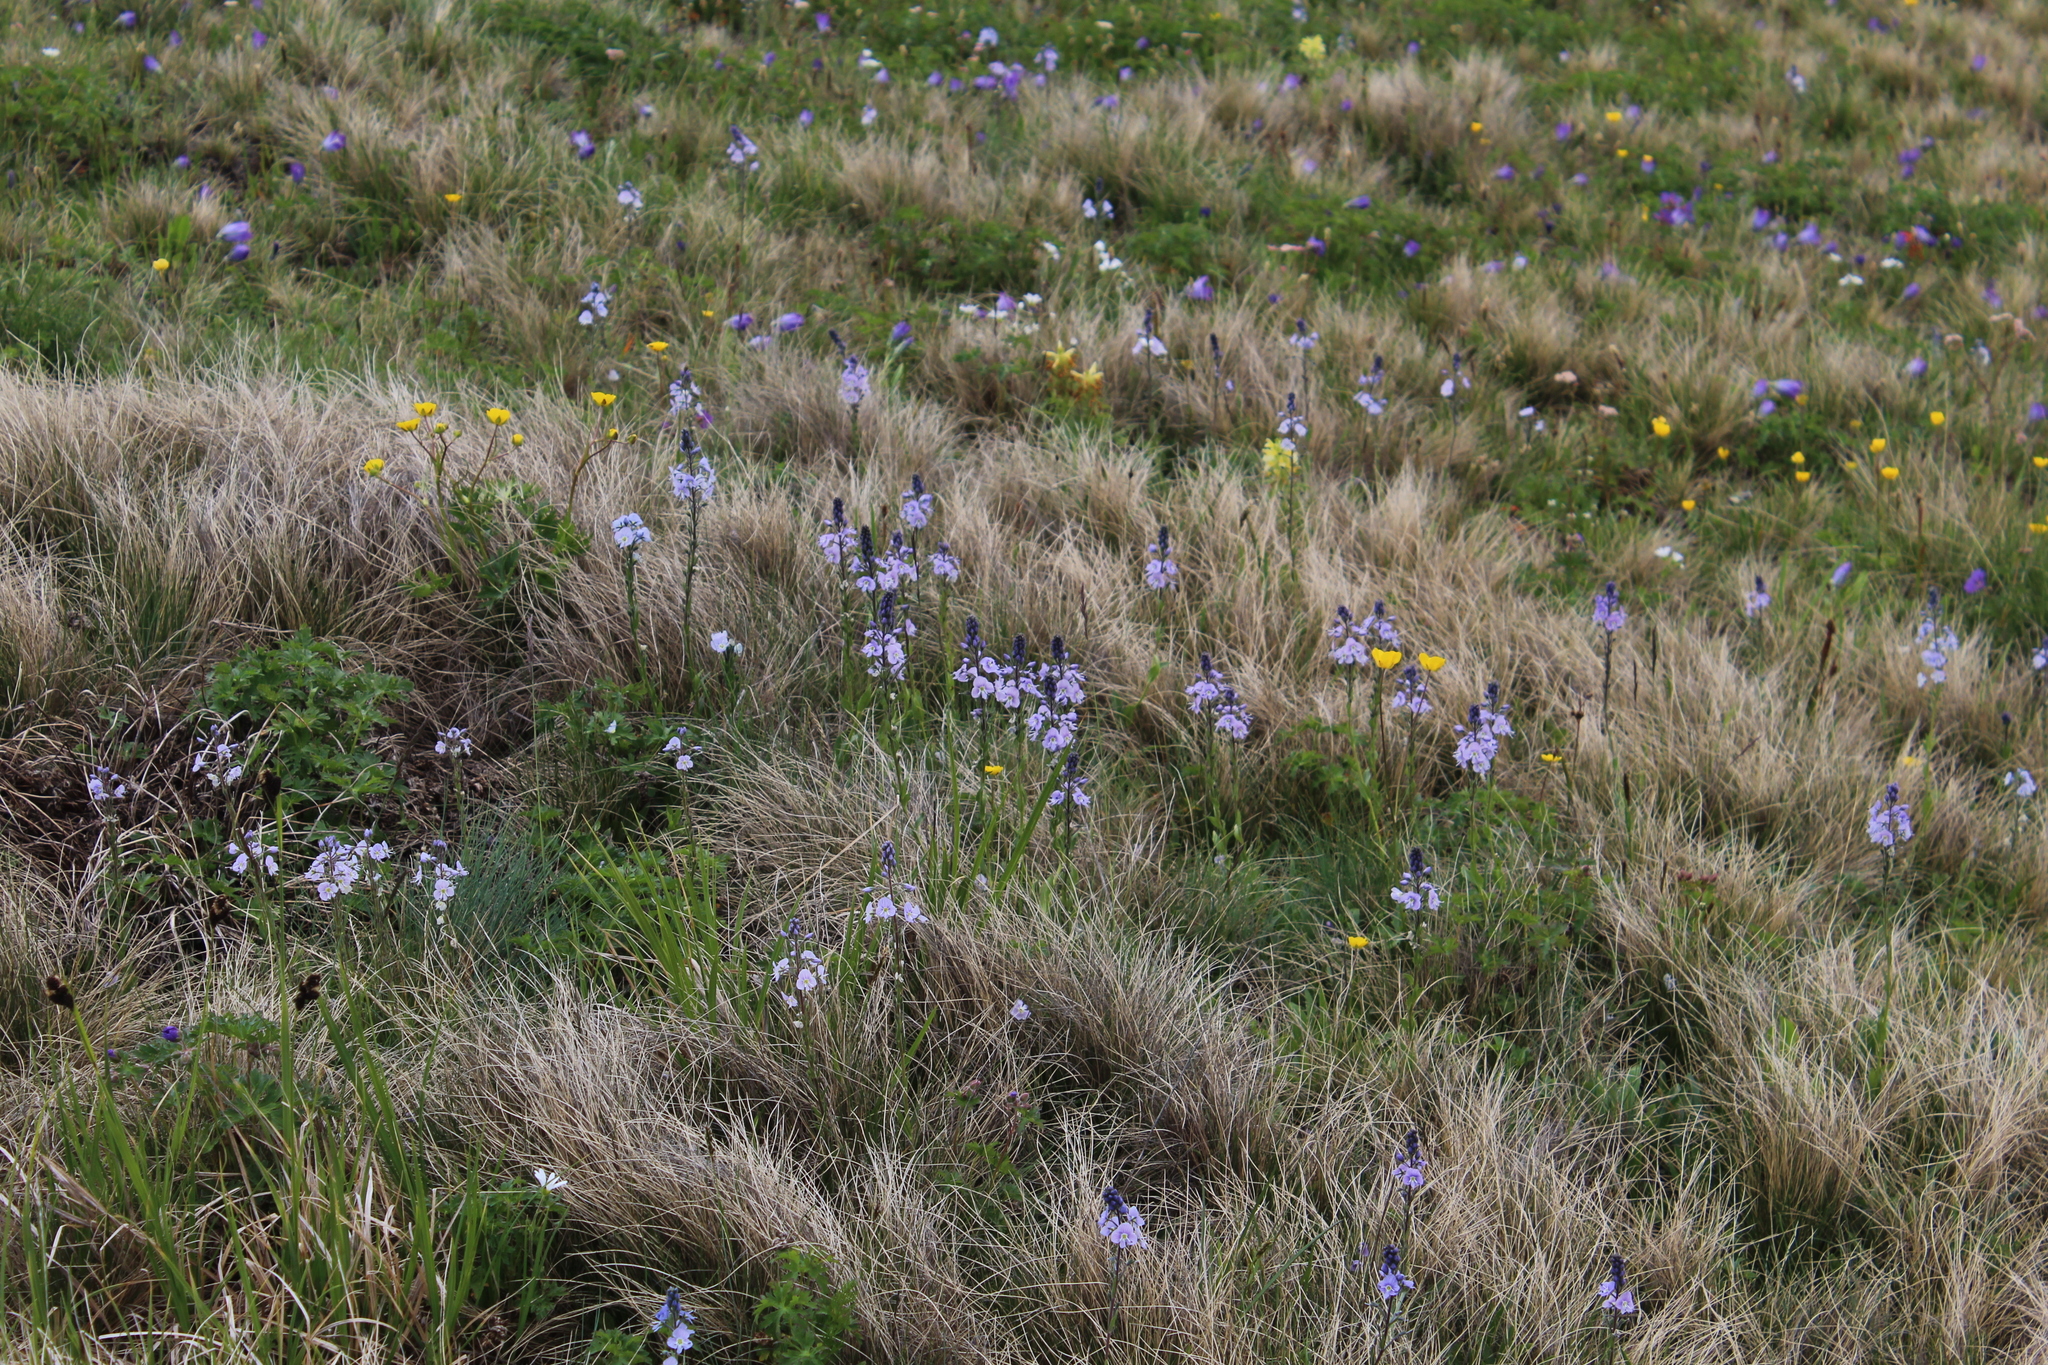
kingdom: Plantae
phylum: Tracheophyta
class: Magnoliopsida
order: Lamiales
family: Plantaginaceae
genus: Veronica
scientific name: Veronica gentianoides
